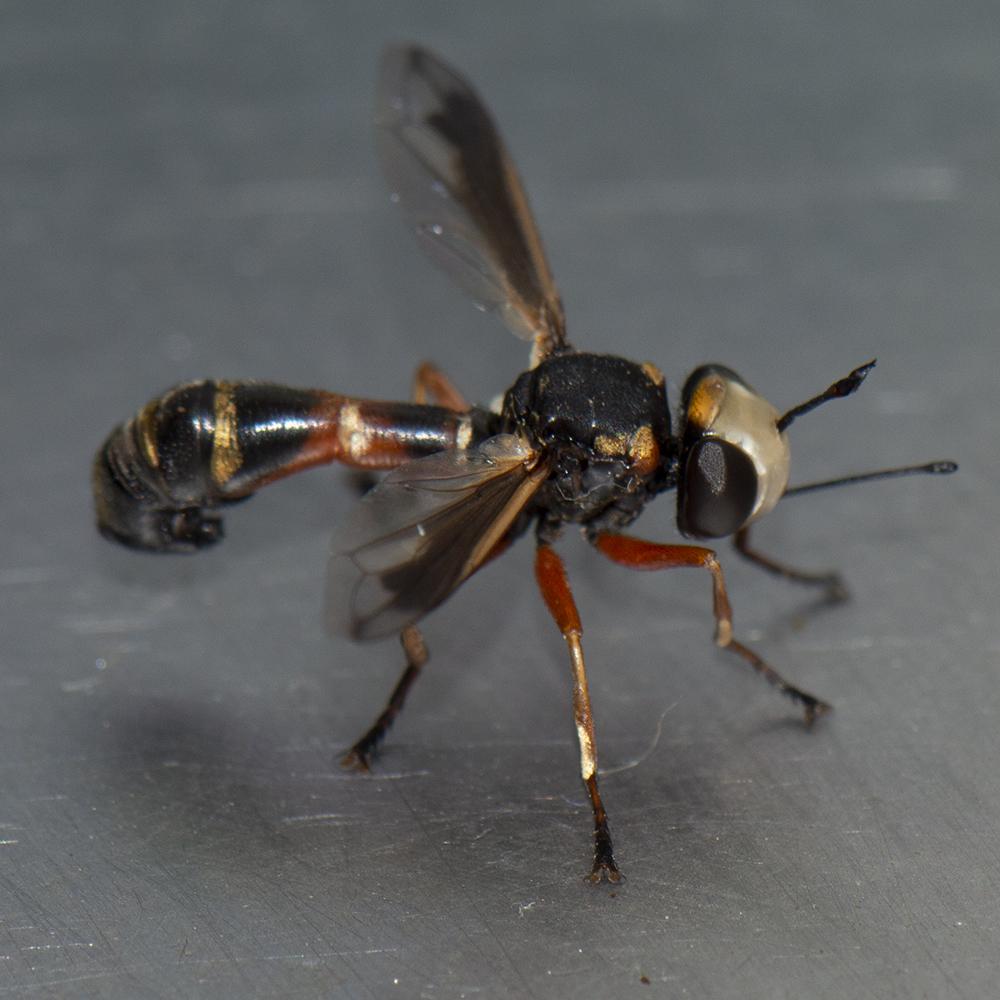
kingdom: Animalia
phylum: Arthropoda
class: Insecta
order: Diptera
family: Conopidae
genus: Physocephala
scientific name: Physocephala vittata
